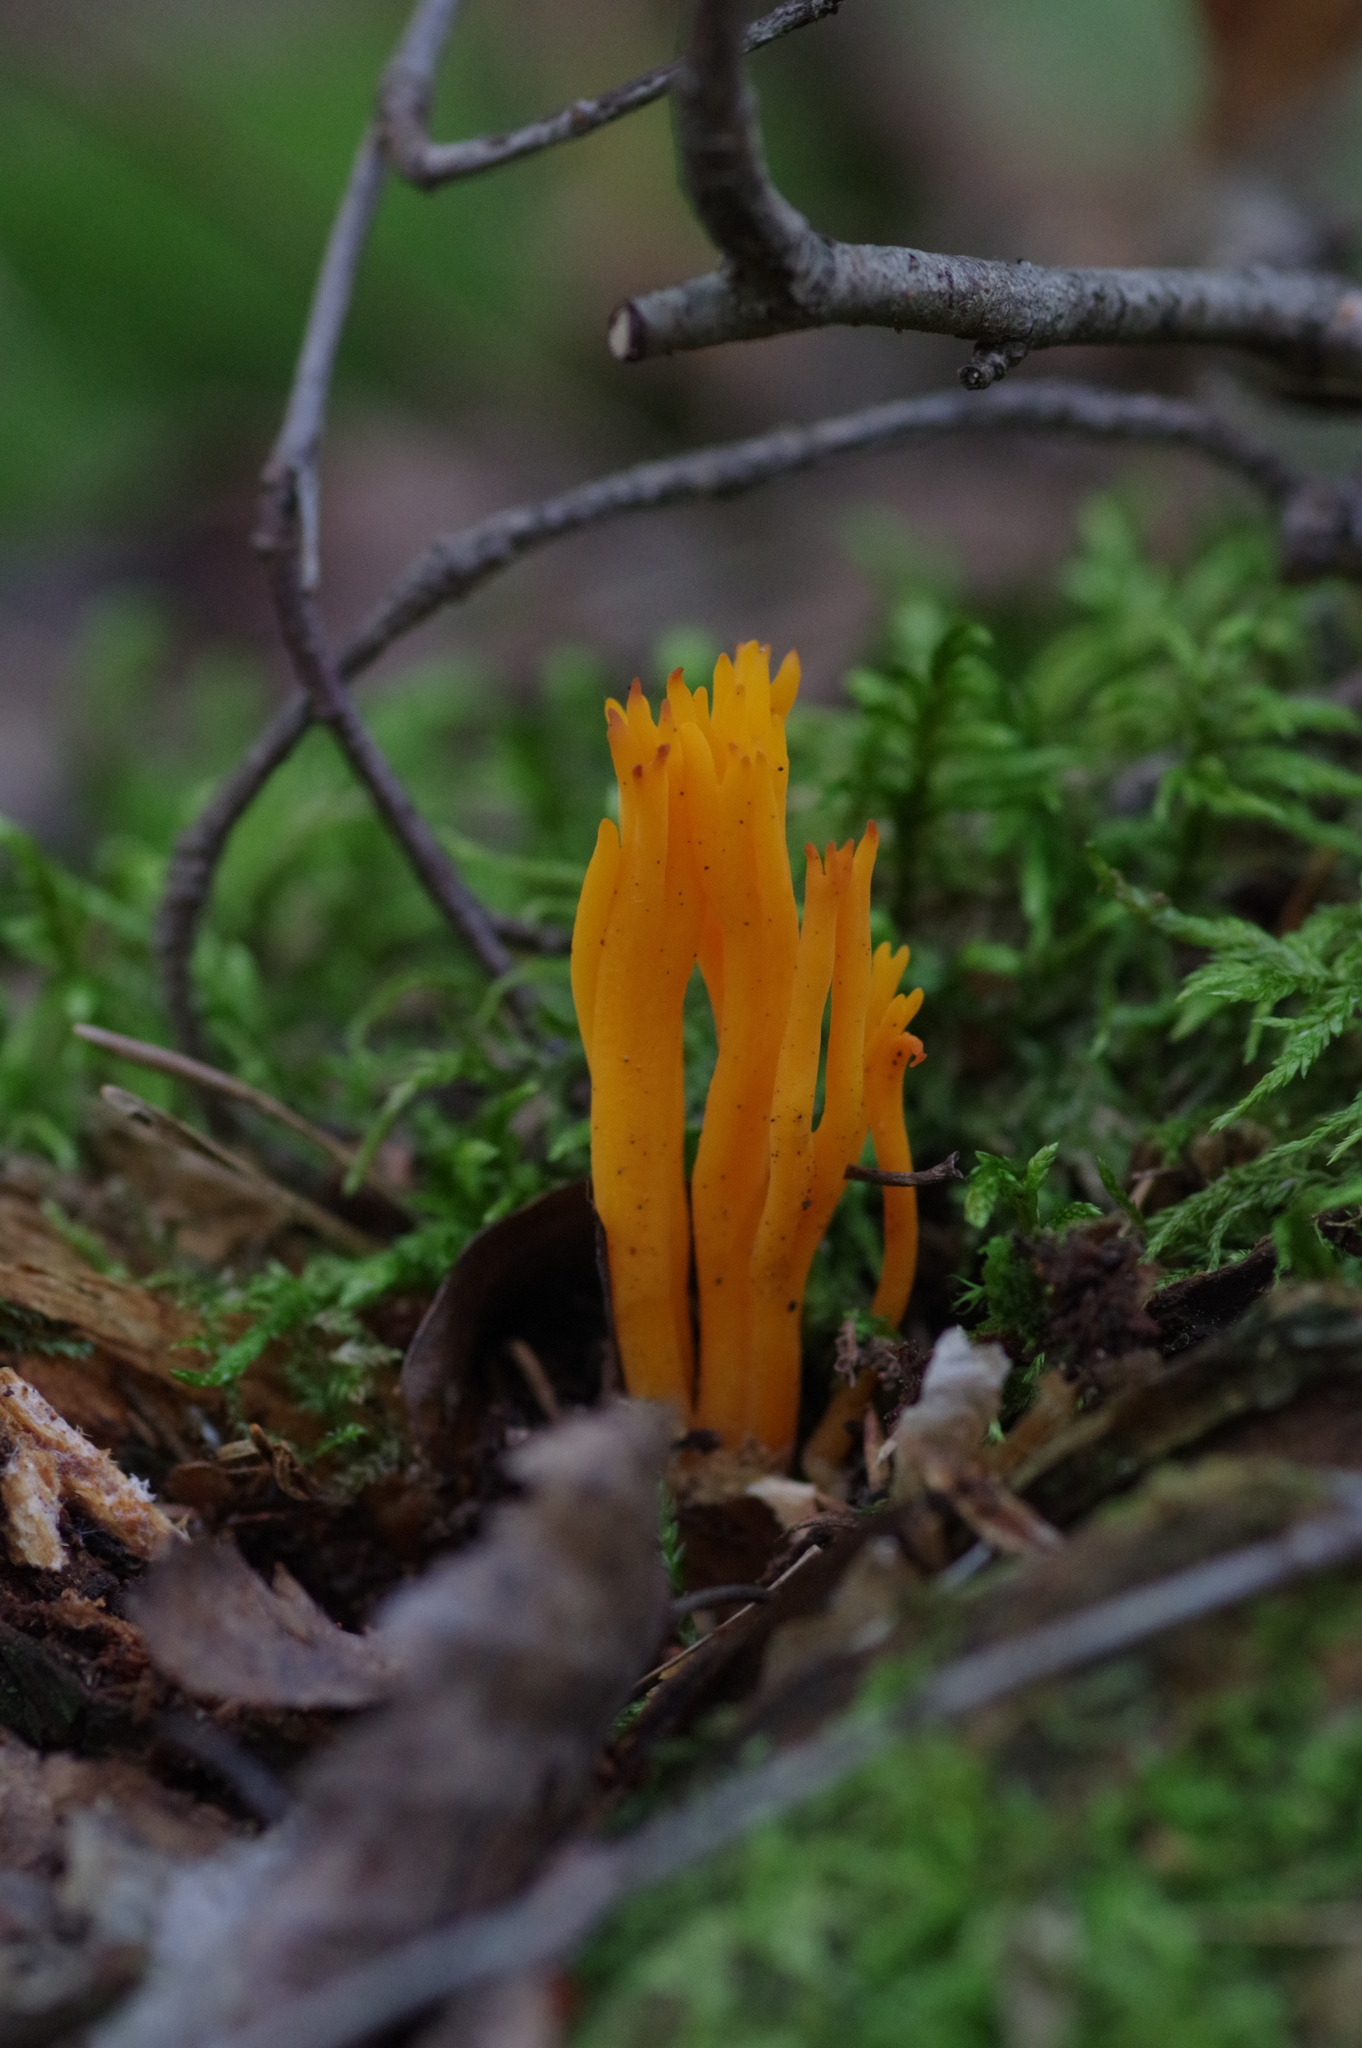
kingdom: Fungi
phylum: Basidiomycota
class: Dacrymycetes
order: Dacrymycetales
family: Dacrymycetaceae
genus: Calocera
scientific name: Calocera viscosa
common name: Yellow stagshorn
